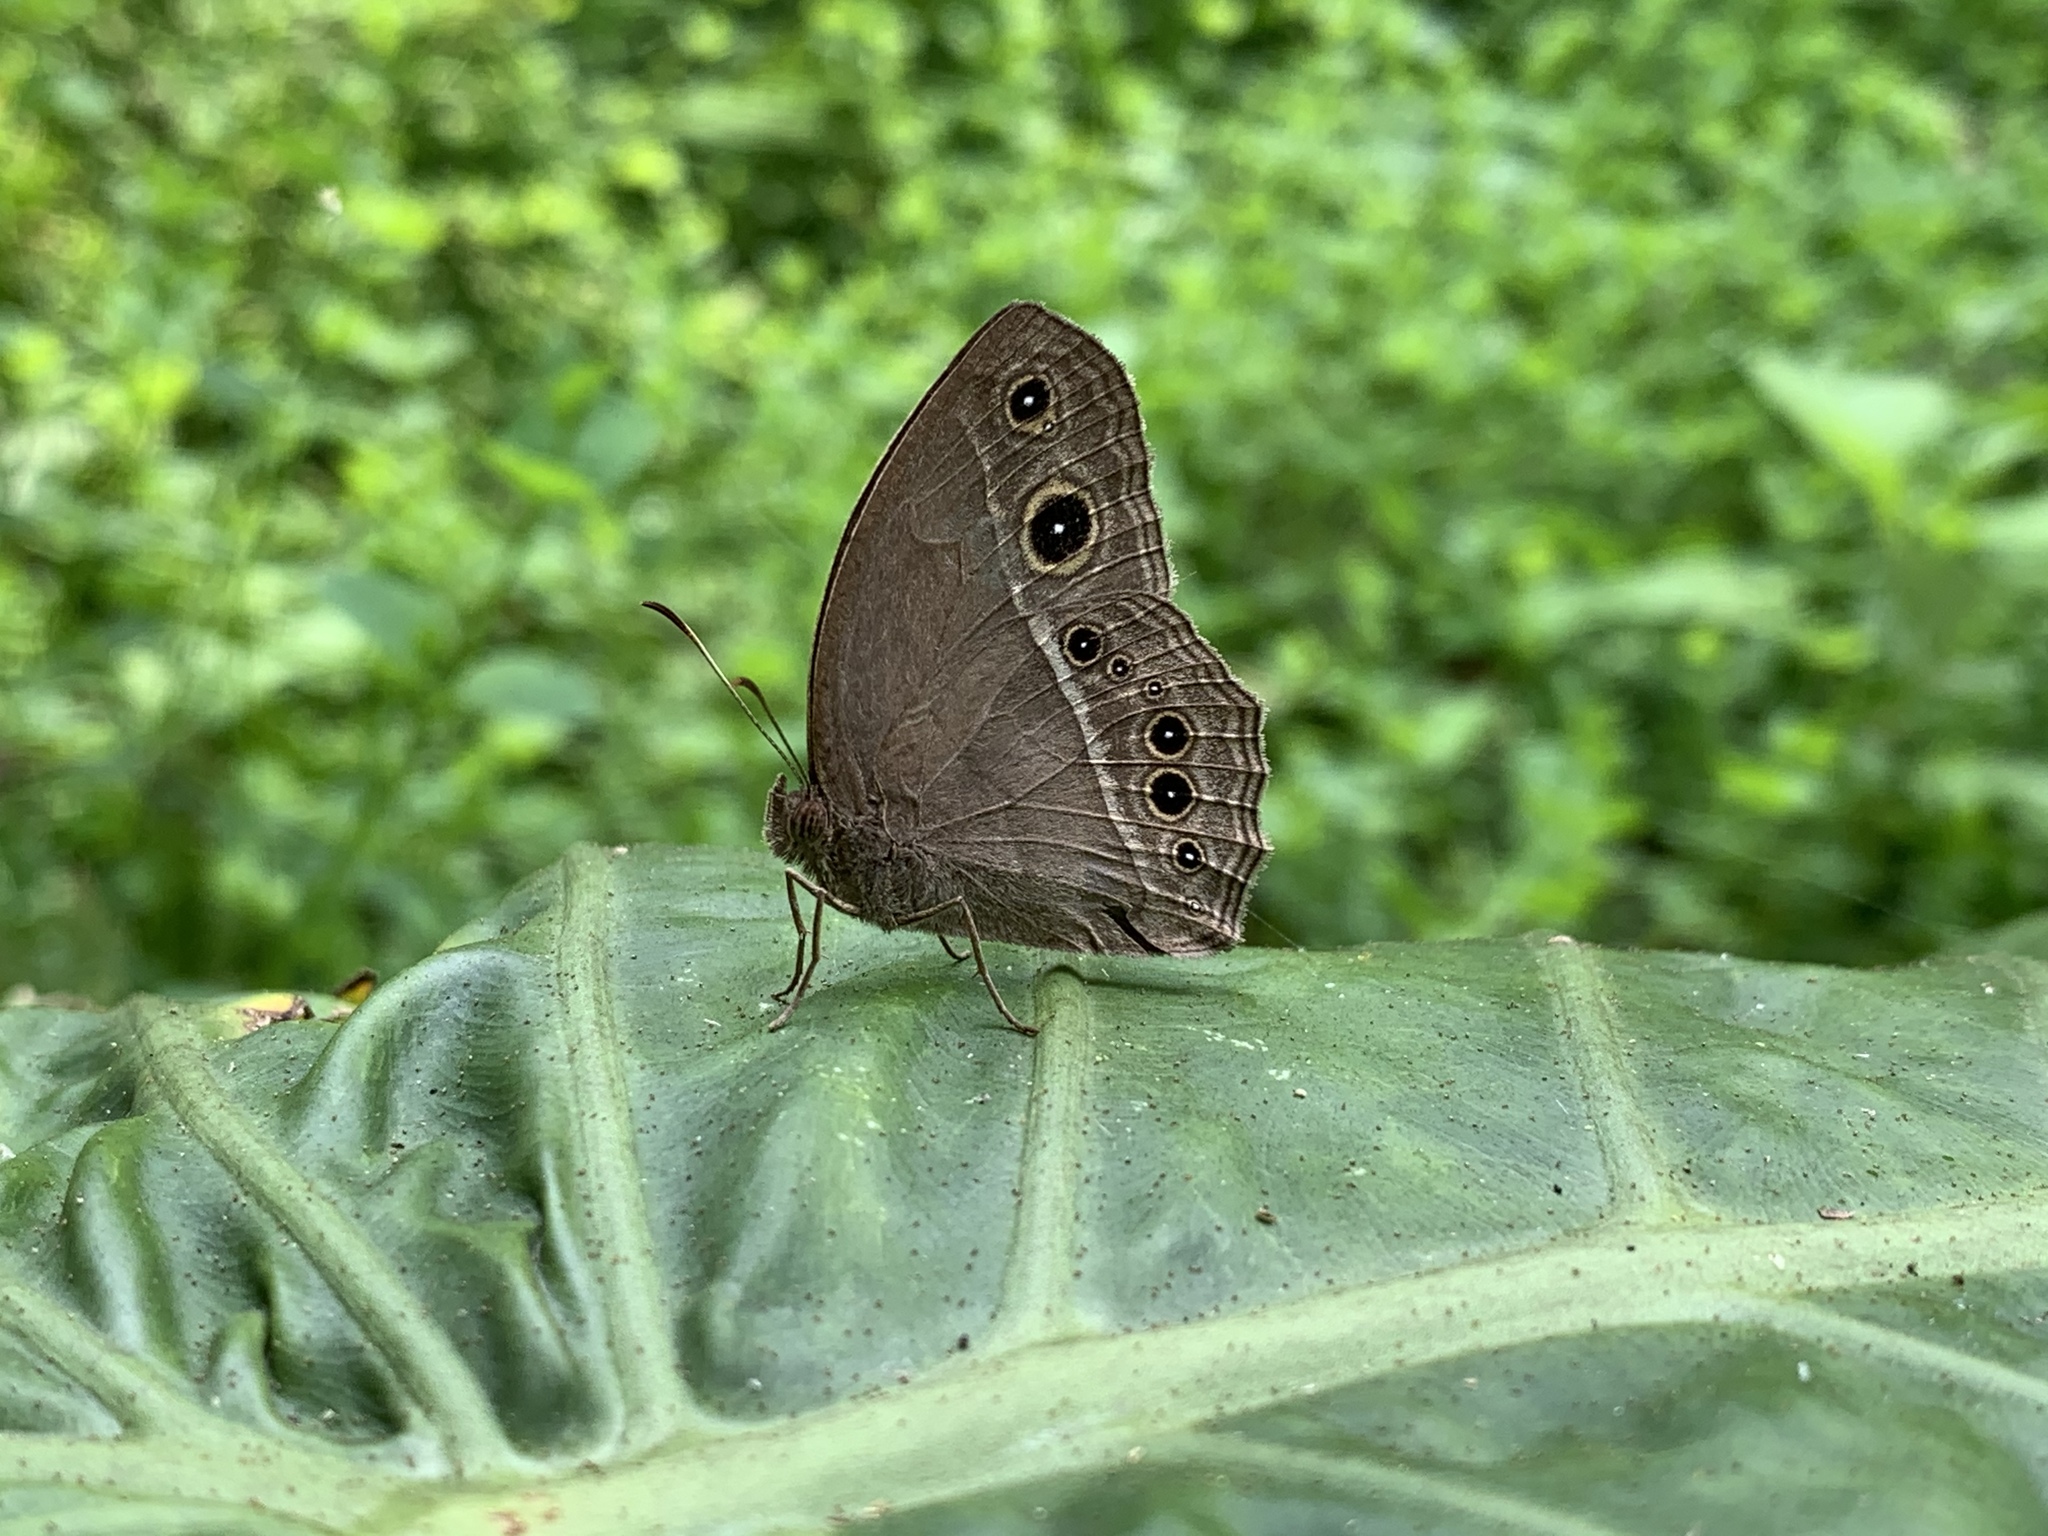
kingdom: Animalia
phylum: Arthropoda
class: Insecta
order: Lepidoptera
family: Nymphalidae
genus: Mycalesis
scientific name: Mycalesis horsfieldii
